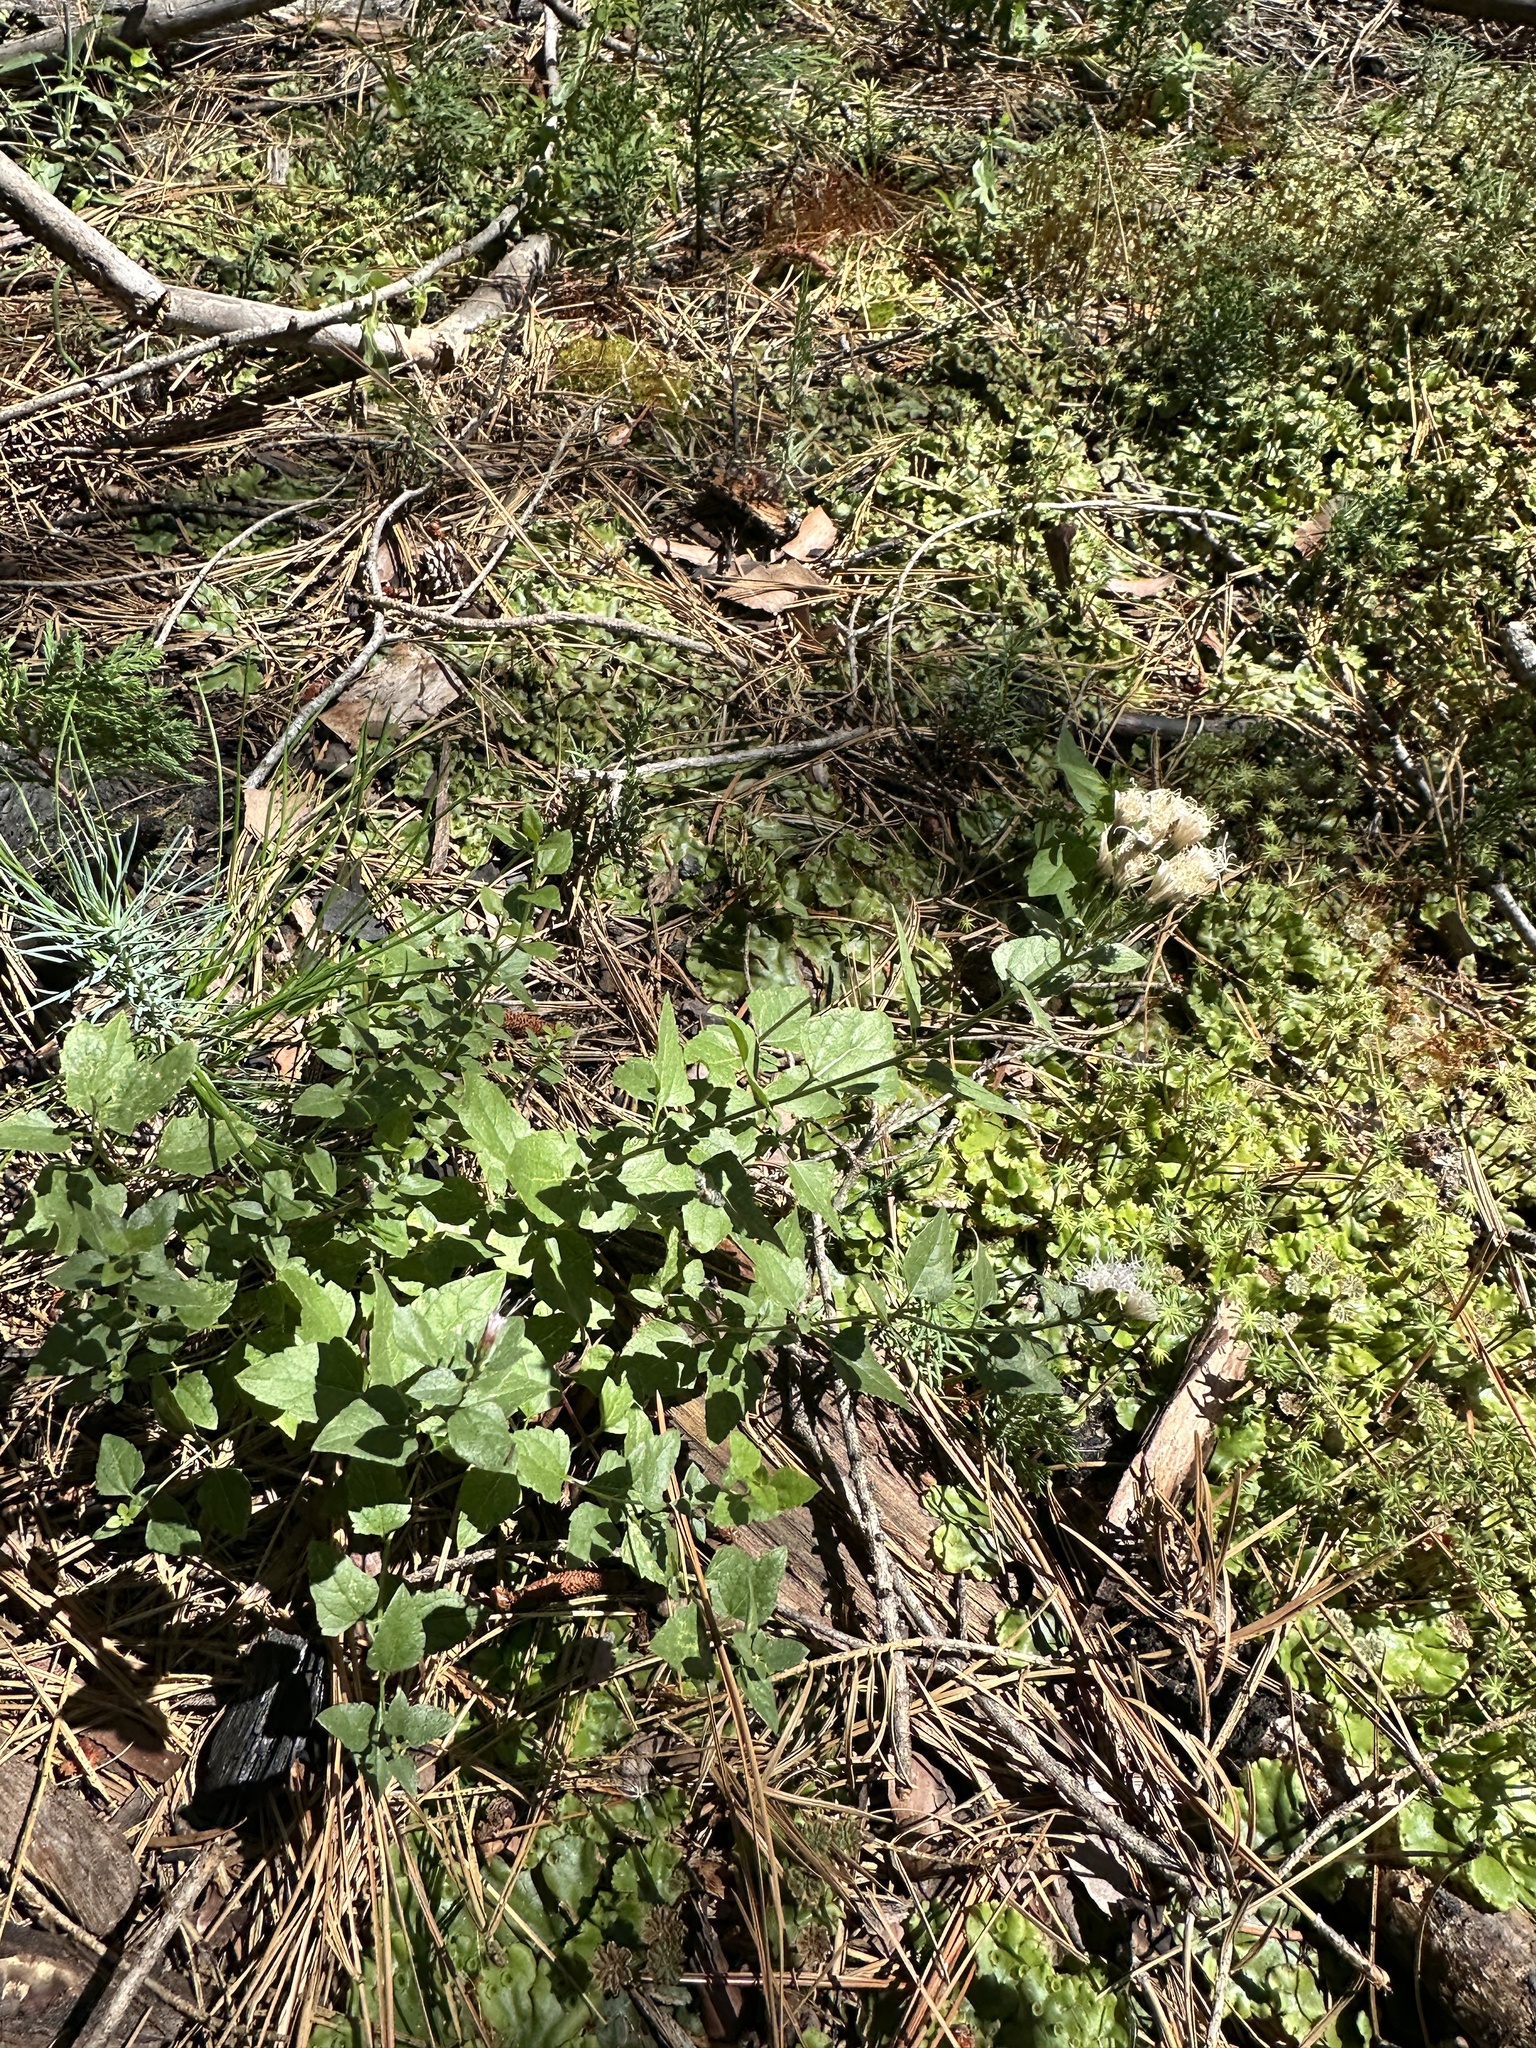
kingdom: Plantae
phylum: Tracheophyta
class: Magnoliopsida
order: Asterales
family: Asteraceae
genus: Ageratina
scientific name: Ageratina occidentalis
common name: Western snakeroot
